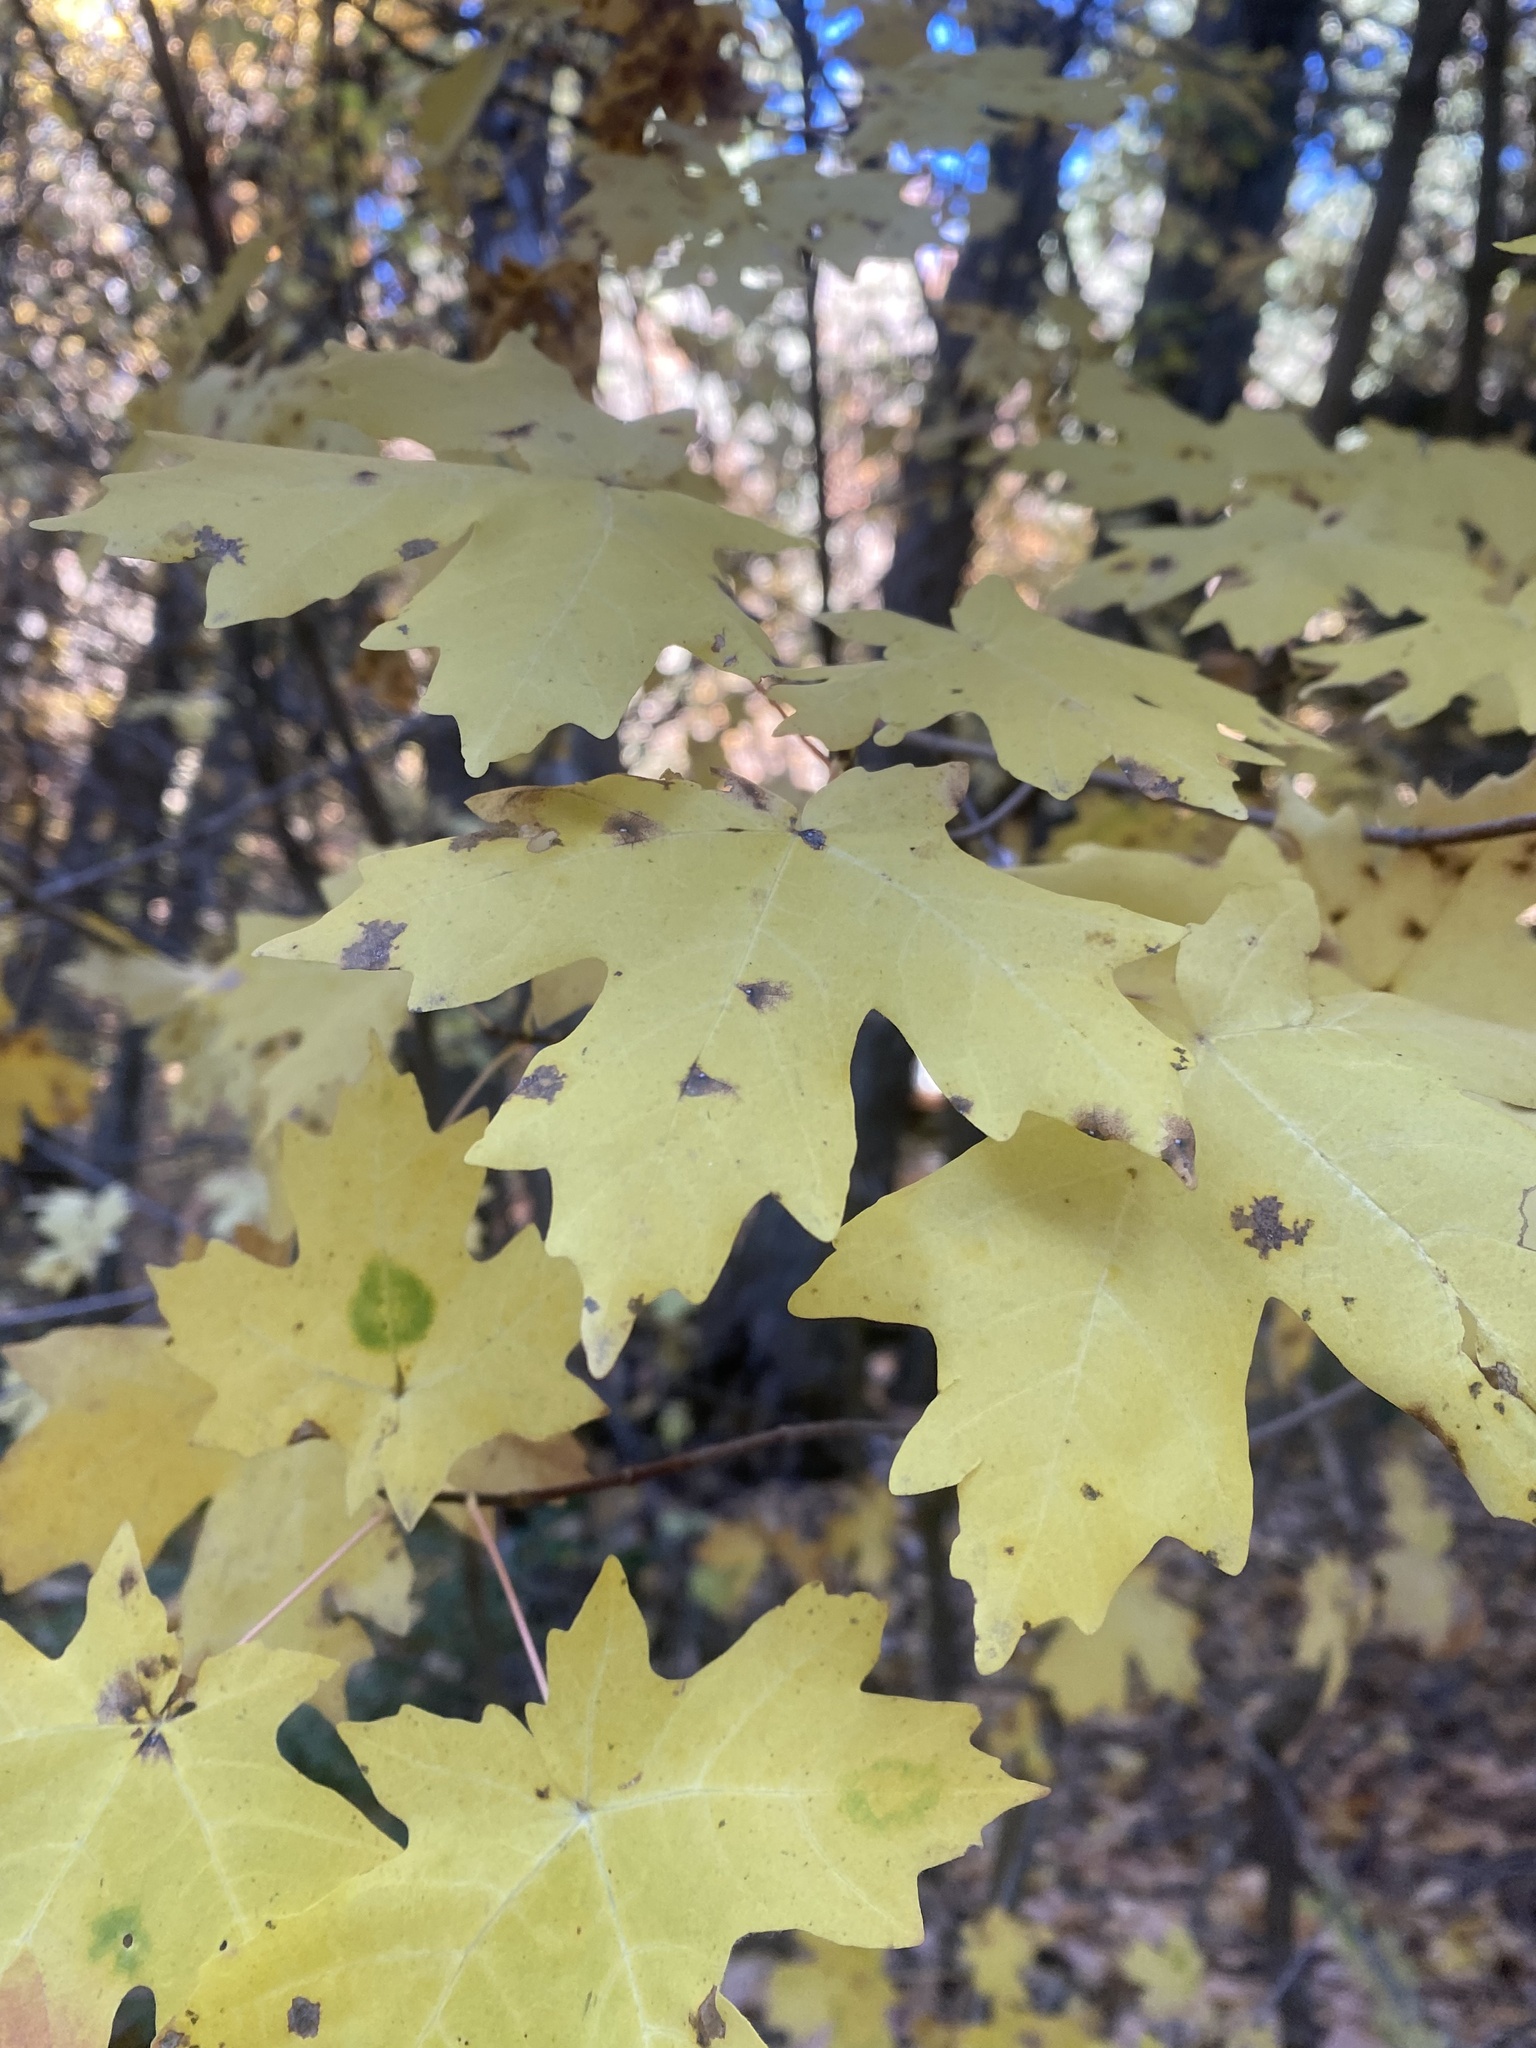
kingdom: Plantae
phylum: Tracheophyta
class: Magnoliopsida
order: Sapindales
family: Sapindaceae
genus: Acer
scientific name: Acer grandidentatum
